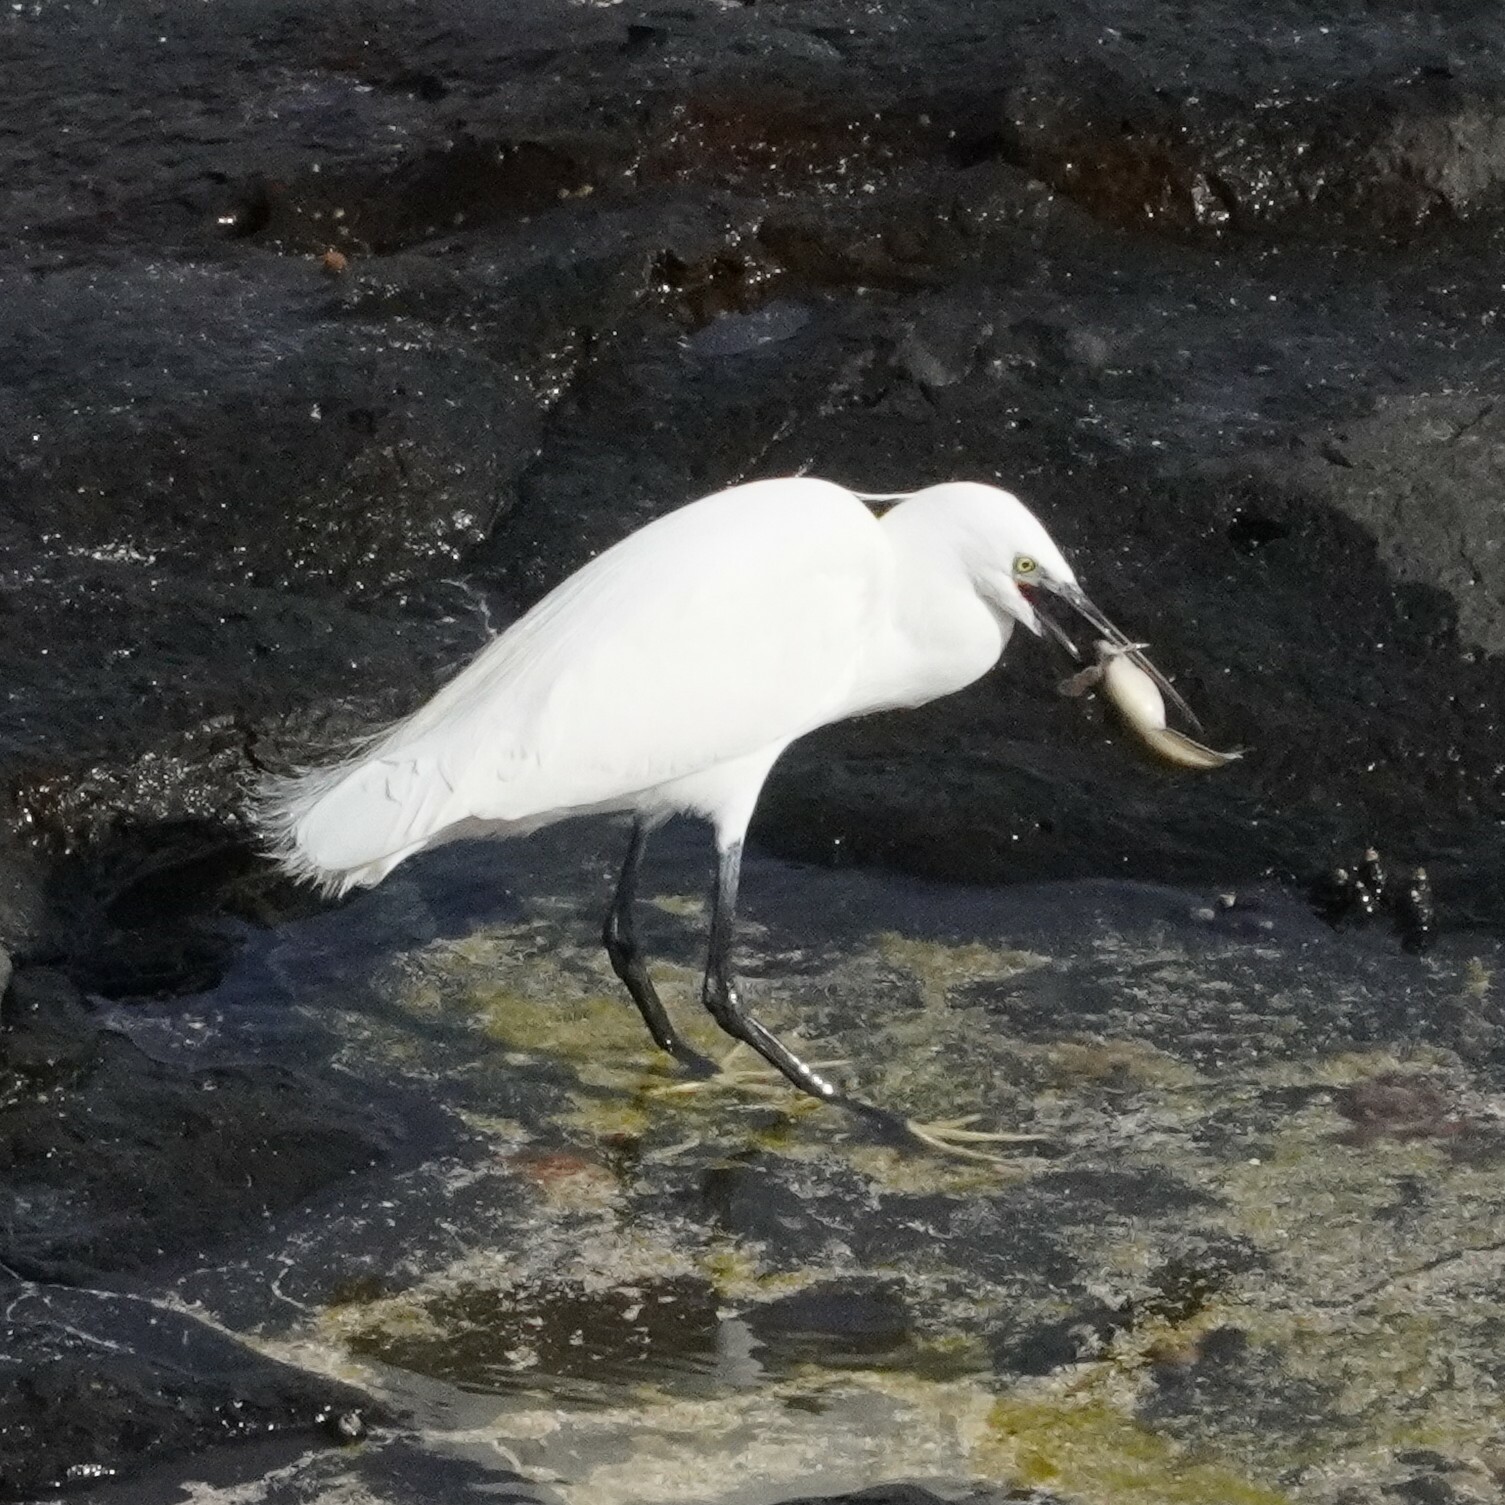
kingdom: Animalia
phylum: Chordata
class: Aves
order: Pelecaniformes
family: Ardeidae
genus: Egretta
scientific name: Egretta garzetta
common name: Little egret
